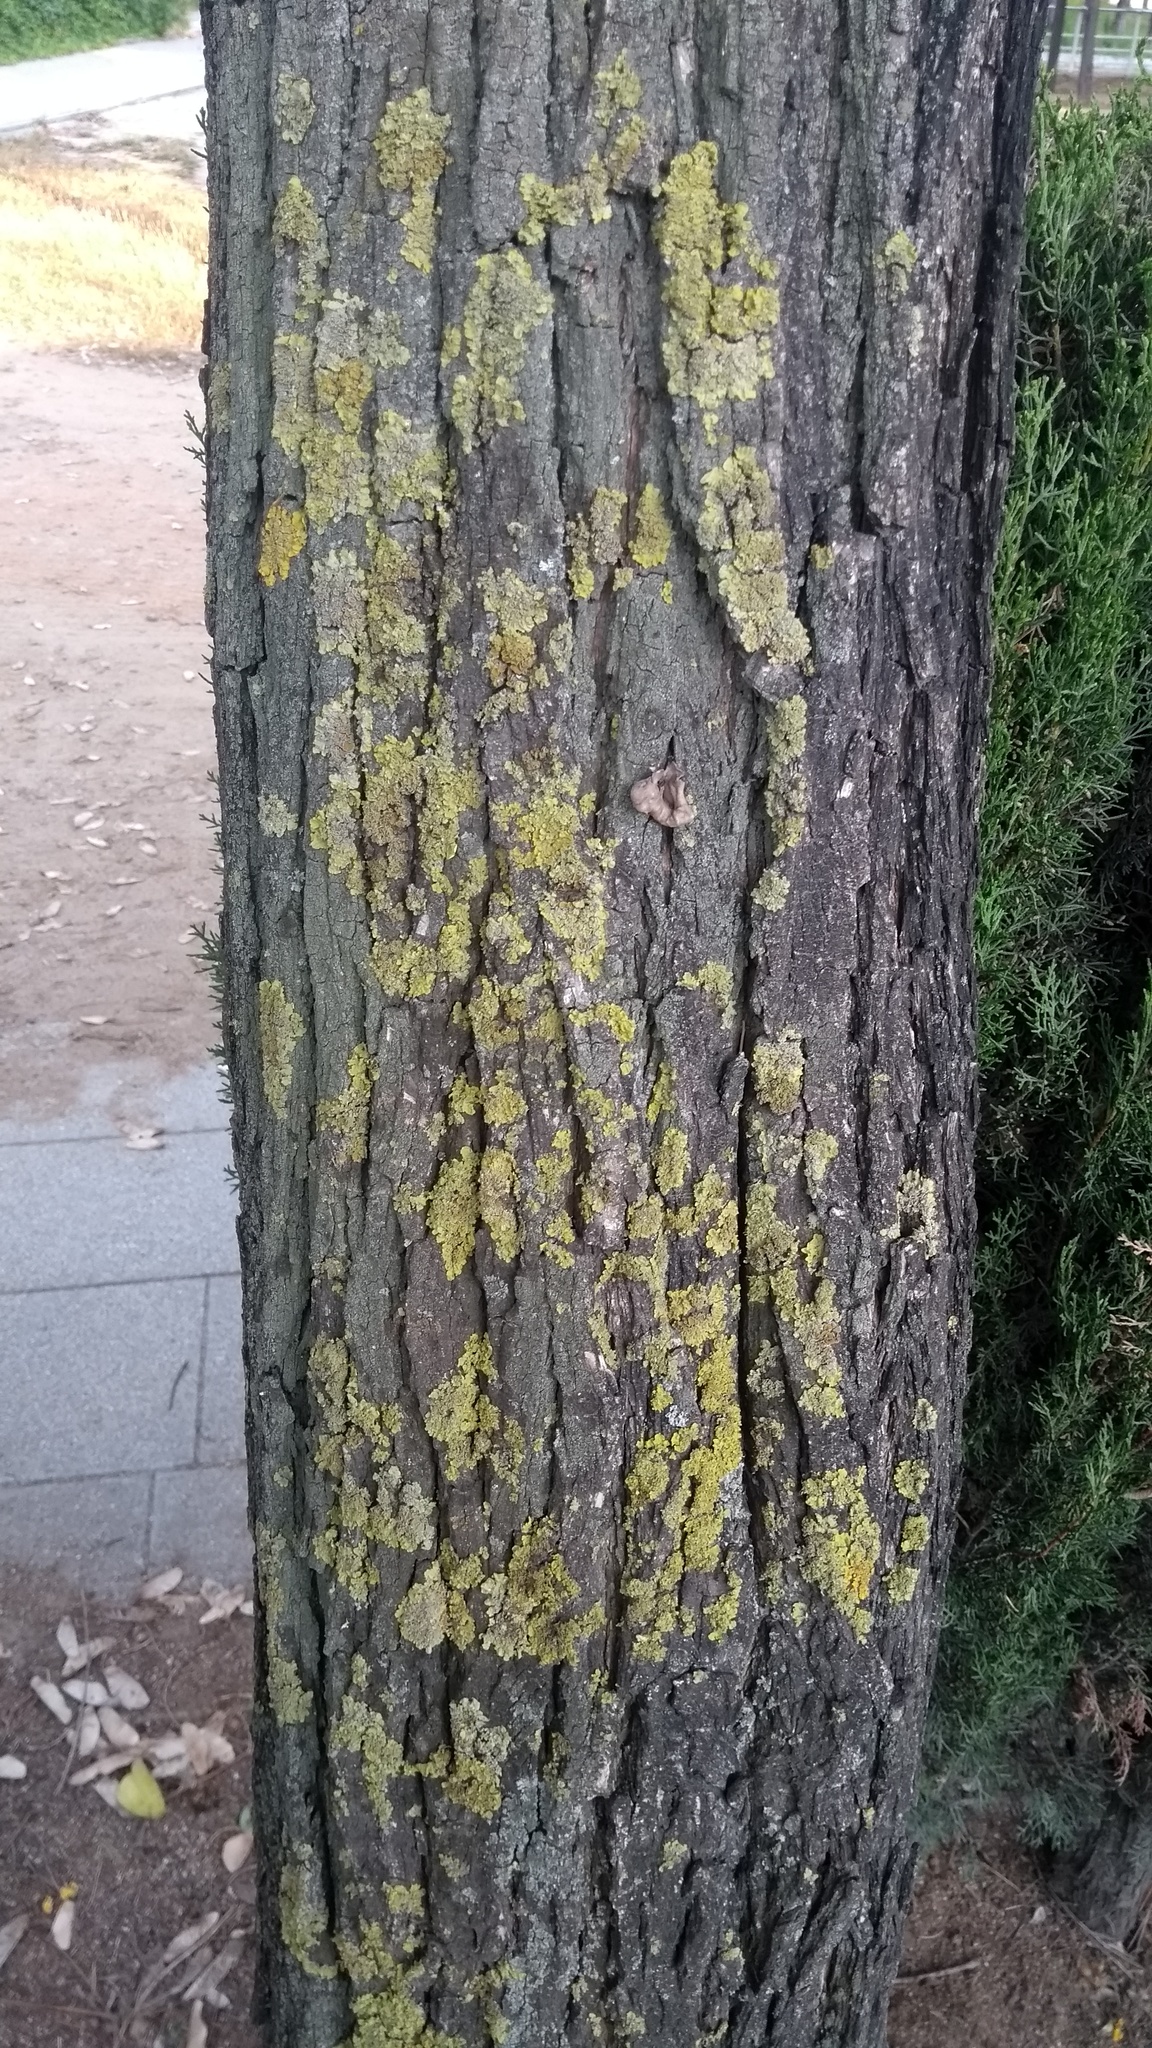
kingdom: Fungi
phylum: Ascomycota
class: Lecanoromycetes
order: Teloschistales
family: Teloschistaceae
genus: Xanthoria
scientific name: Xanthoria parietina
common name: Common orange lichen
